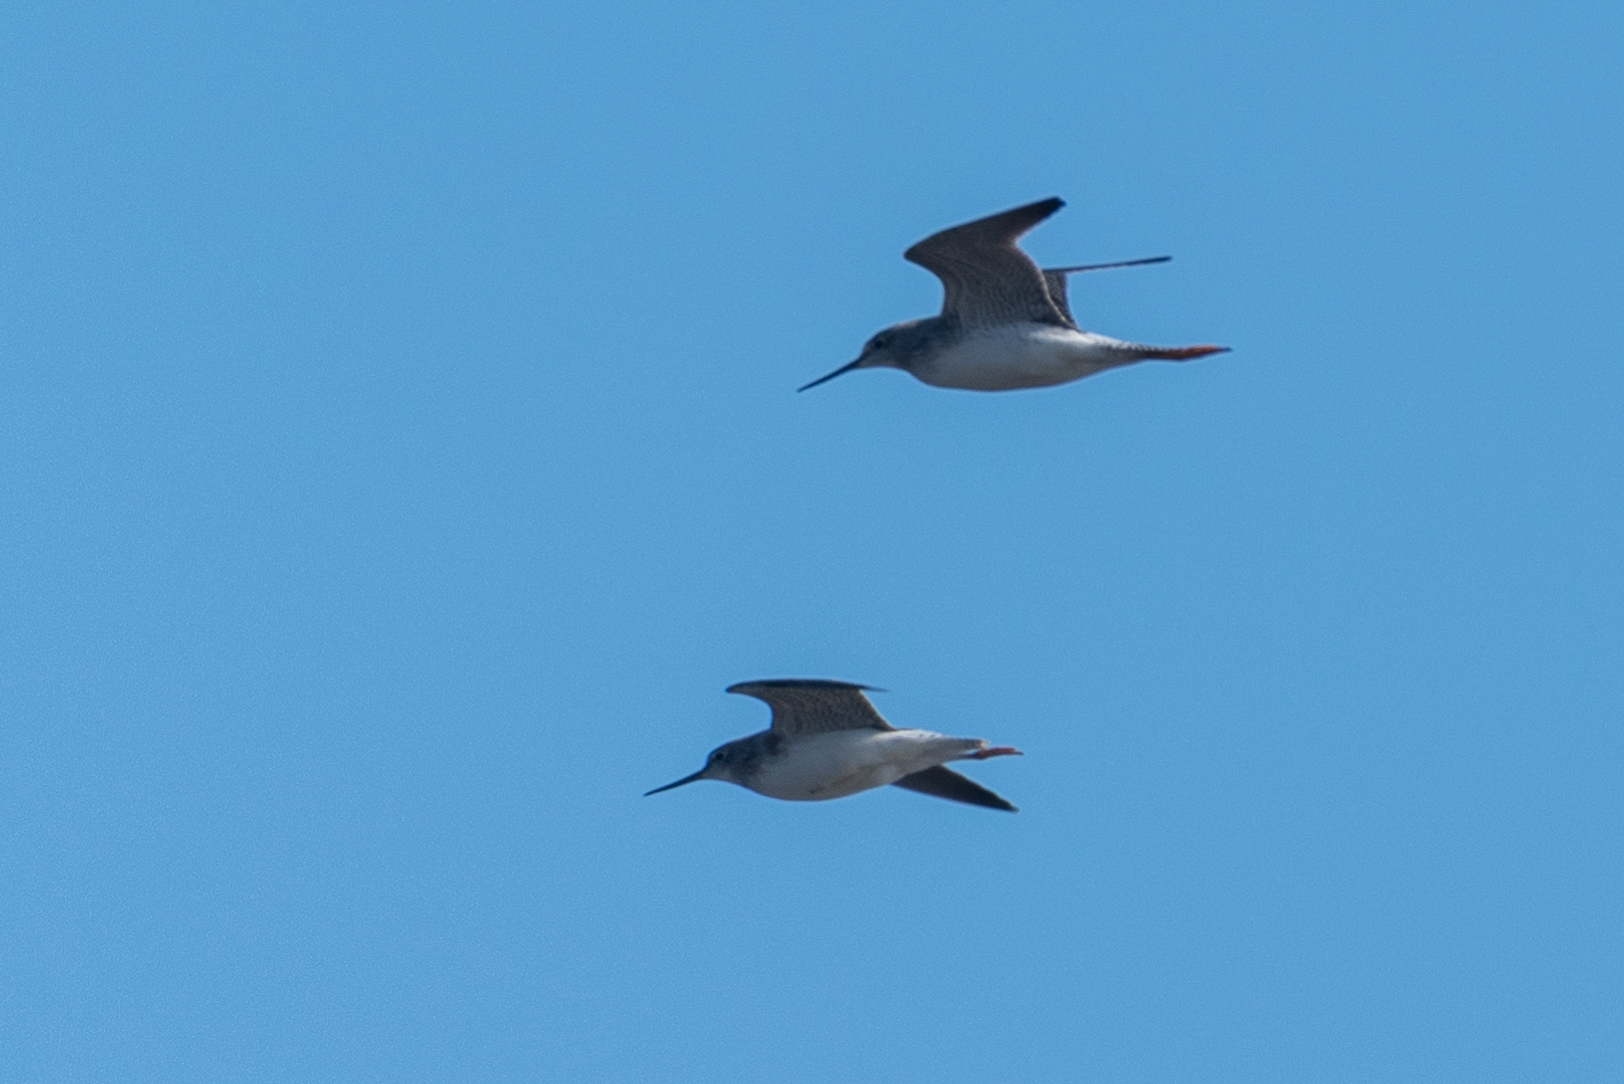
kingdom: Animalia
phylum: Chordata
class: Aves
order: Charadriiformes
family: Scolopacidae
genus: Tringa
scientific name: Tringa melanoleuca
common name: Greater yellowlegs
